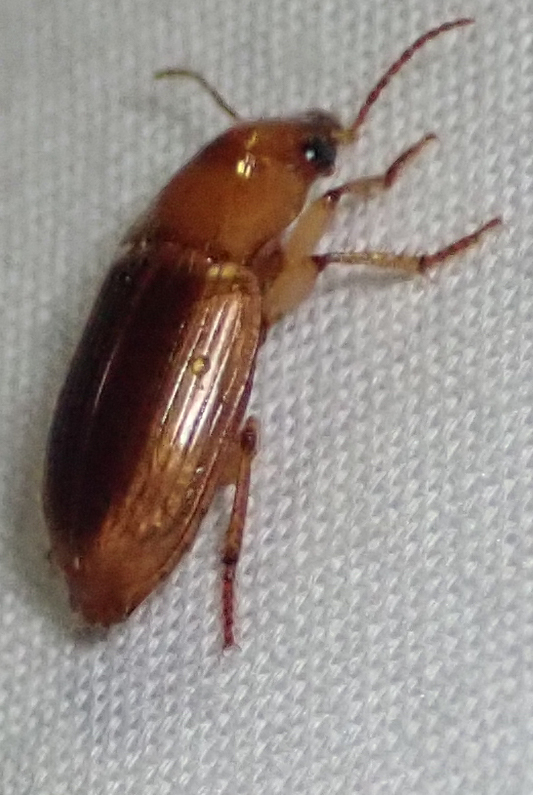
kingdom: Animalia
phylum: Arthropoda
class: Insecta
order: Coleoptera
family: Carabidae
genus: Ooidius
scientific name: Ooidius dorsiger
